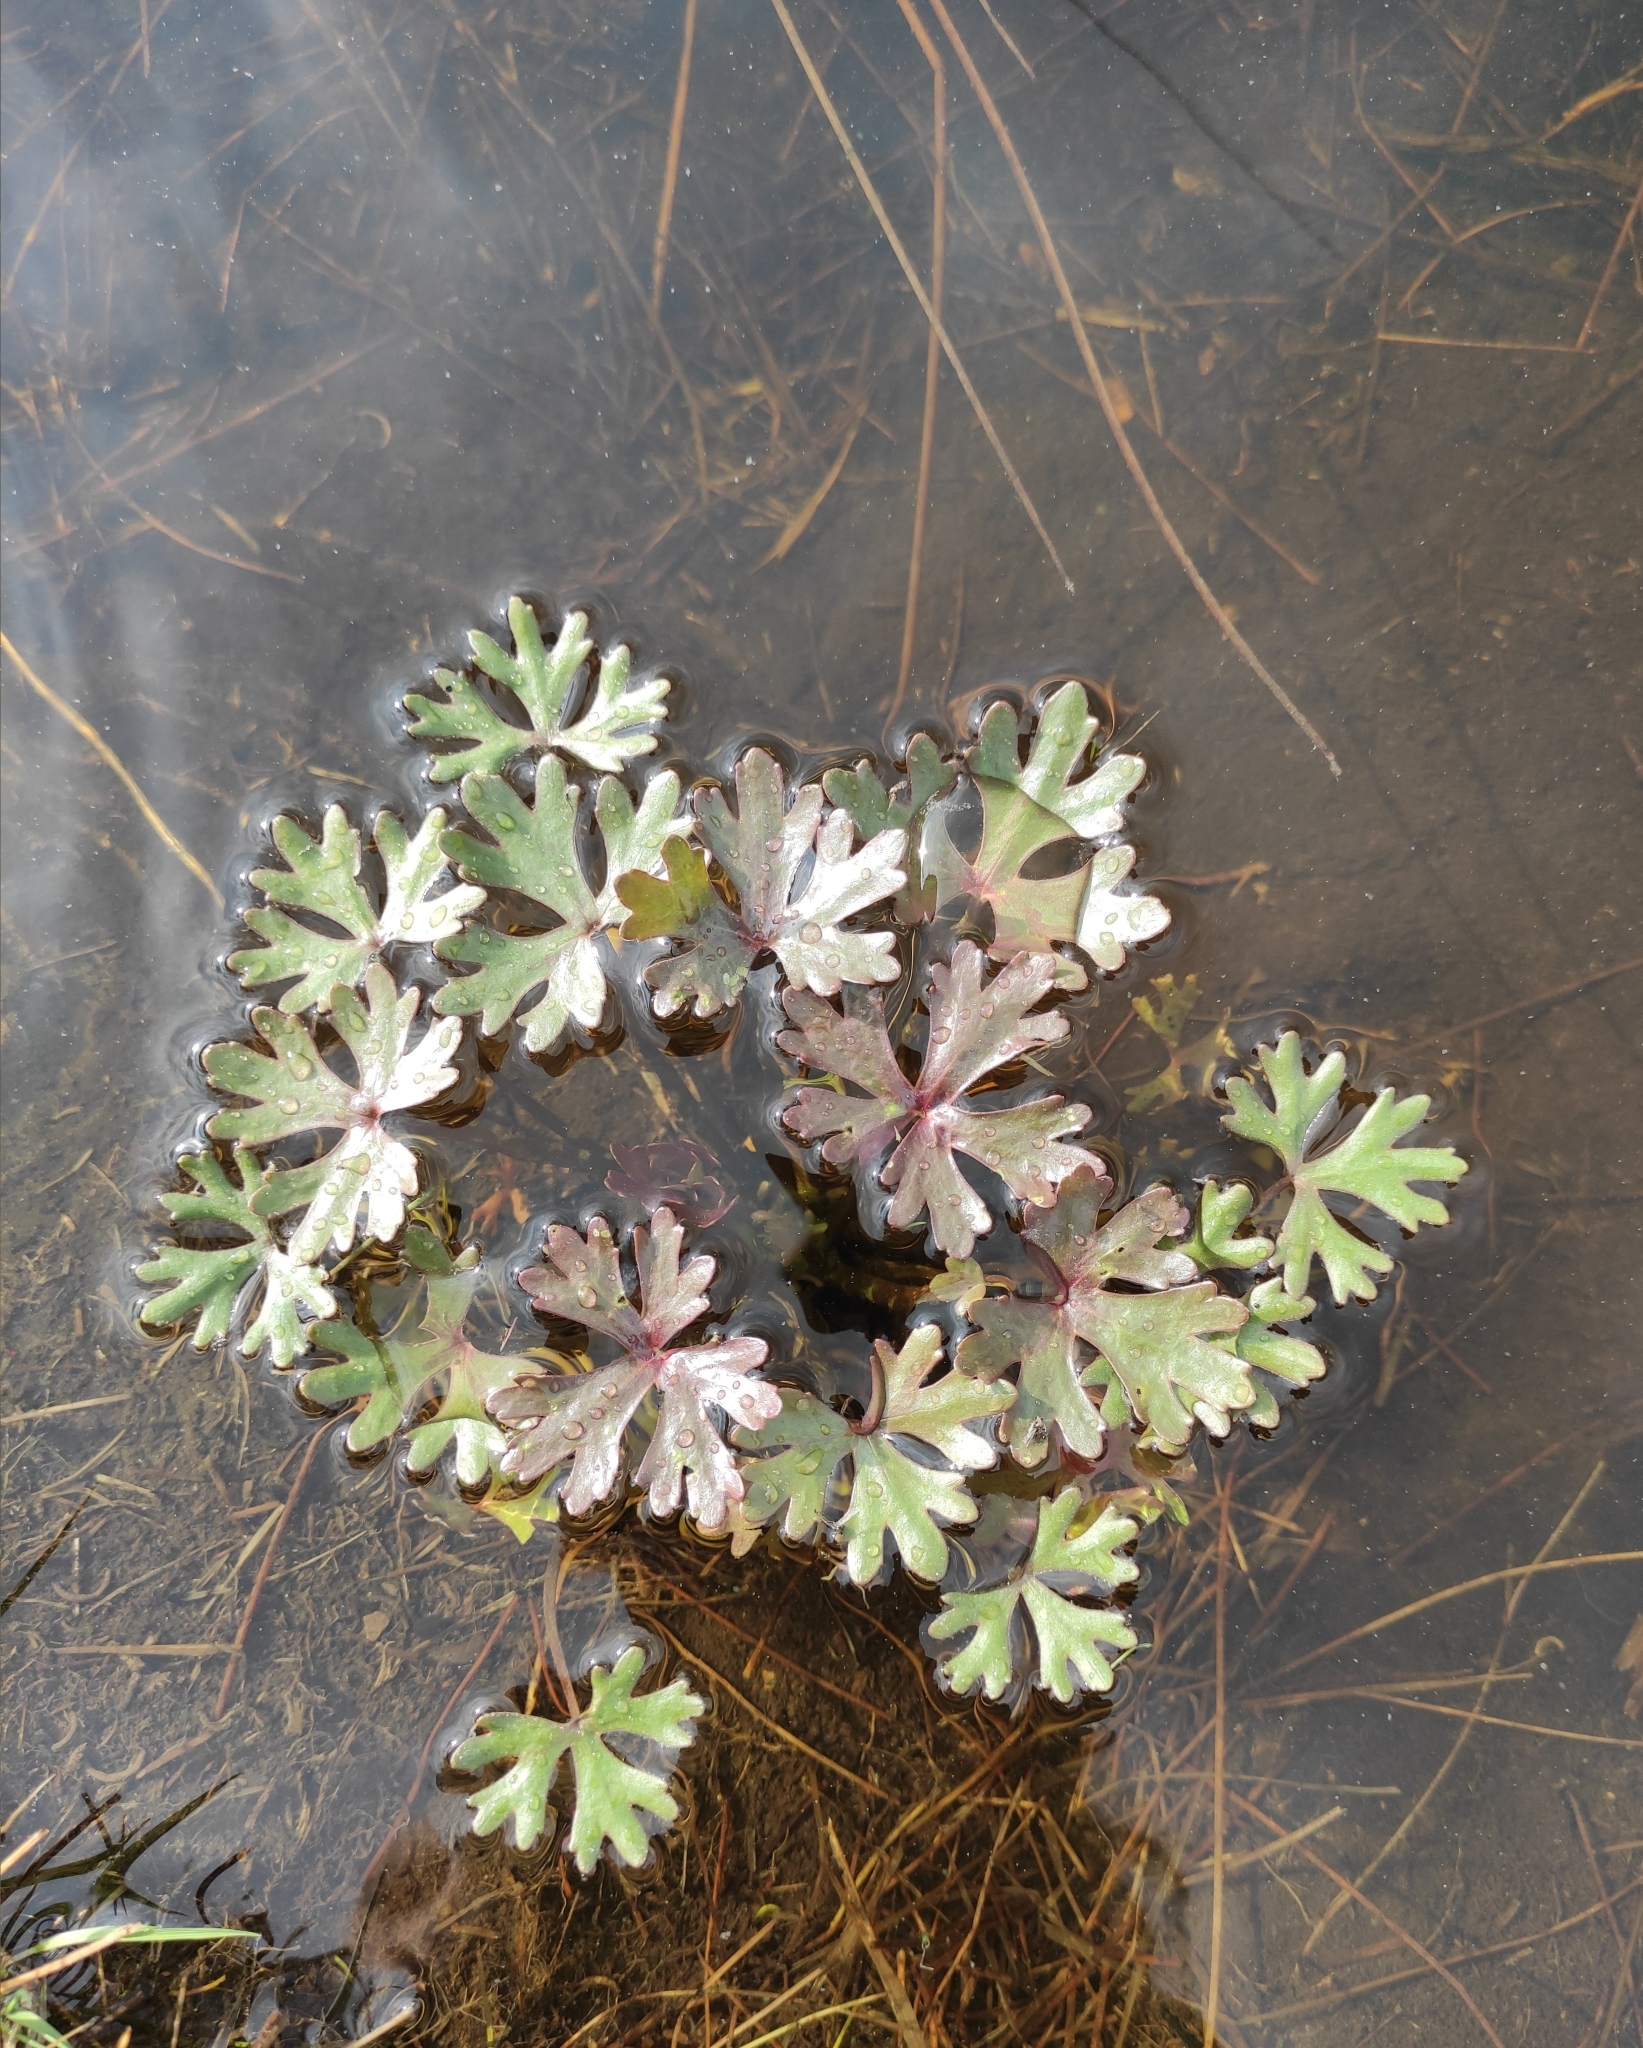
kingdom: Plantae
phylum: Tracheophyta
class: Magnoliopsida
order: Ranunculales
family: Ranunculaceae
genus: Ranunculus
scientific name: Ranunculus sceleratus
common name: Celery-leaved buttercup
